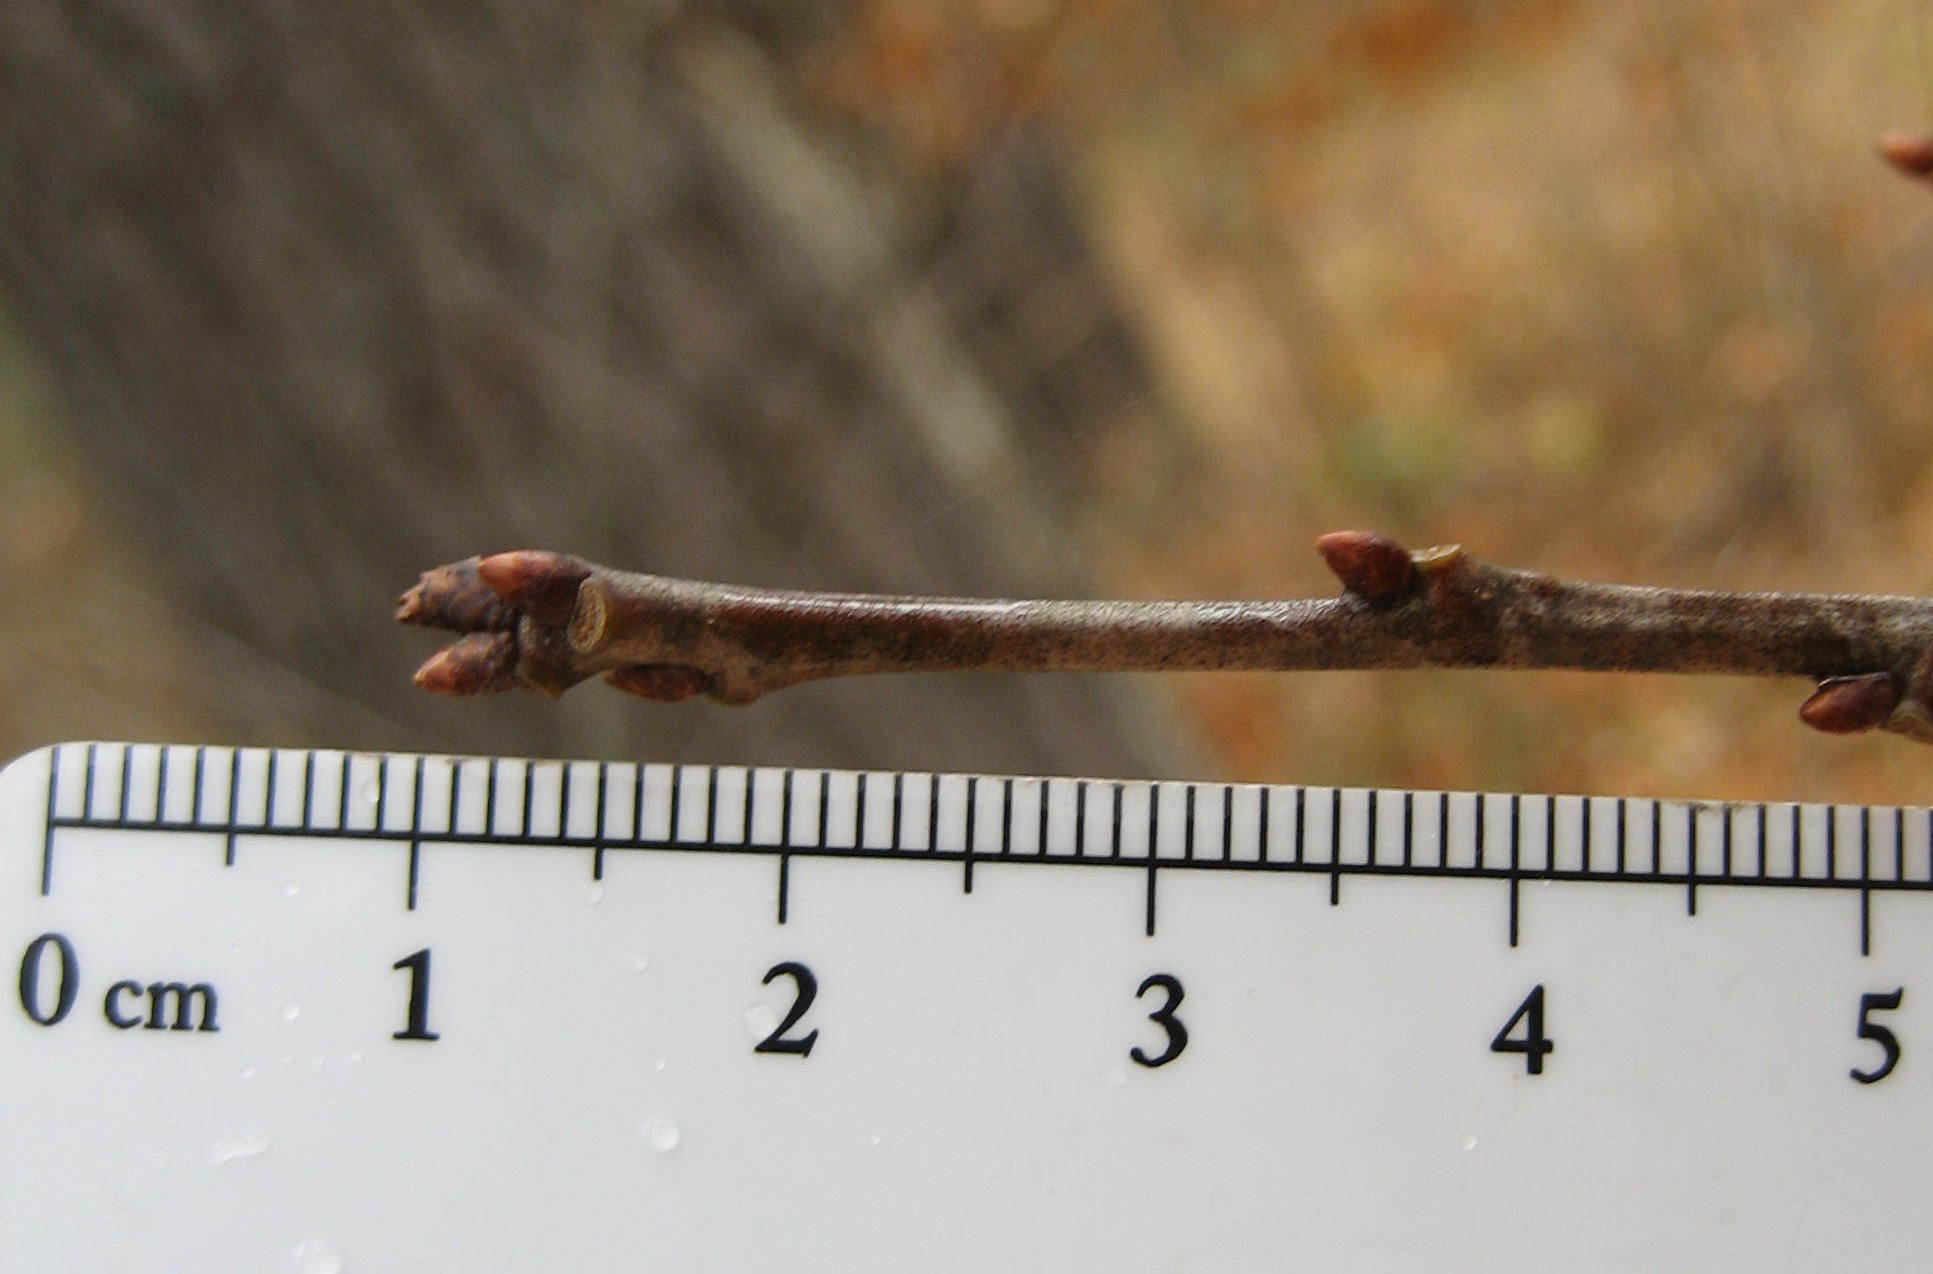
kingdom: Plantae
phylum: Tracheophyta
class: Magnoliopsida
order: Fagales
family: Fagaceae
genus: Quercus
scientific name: Quercus rubra
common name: Red oak
